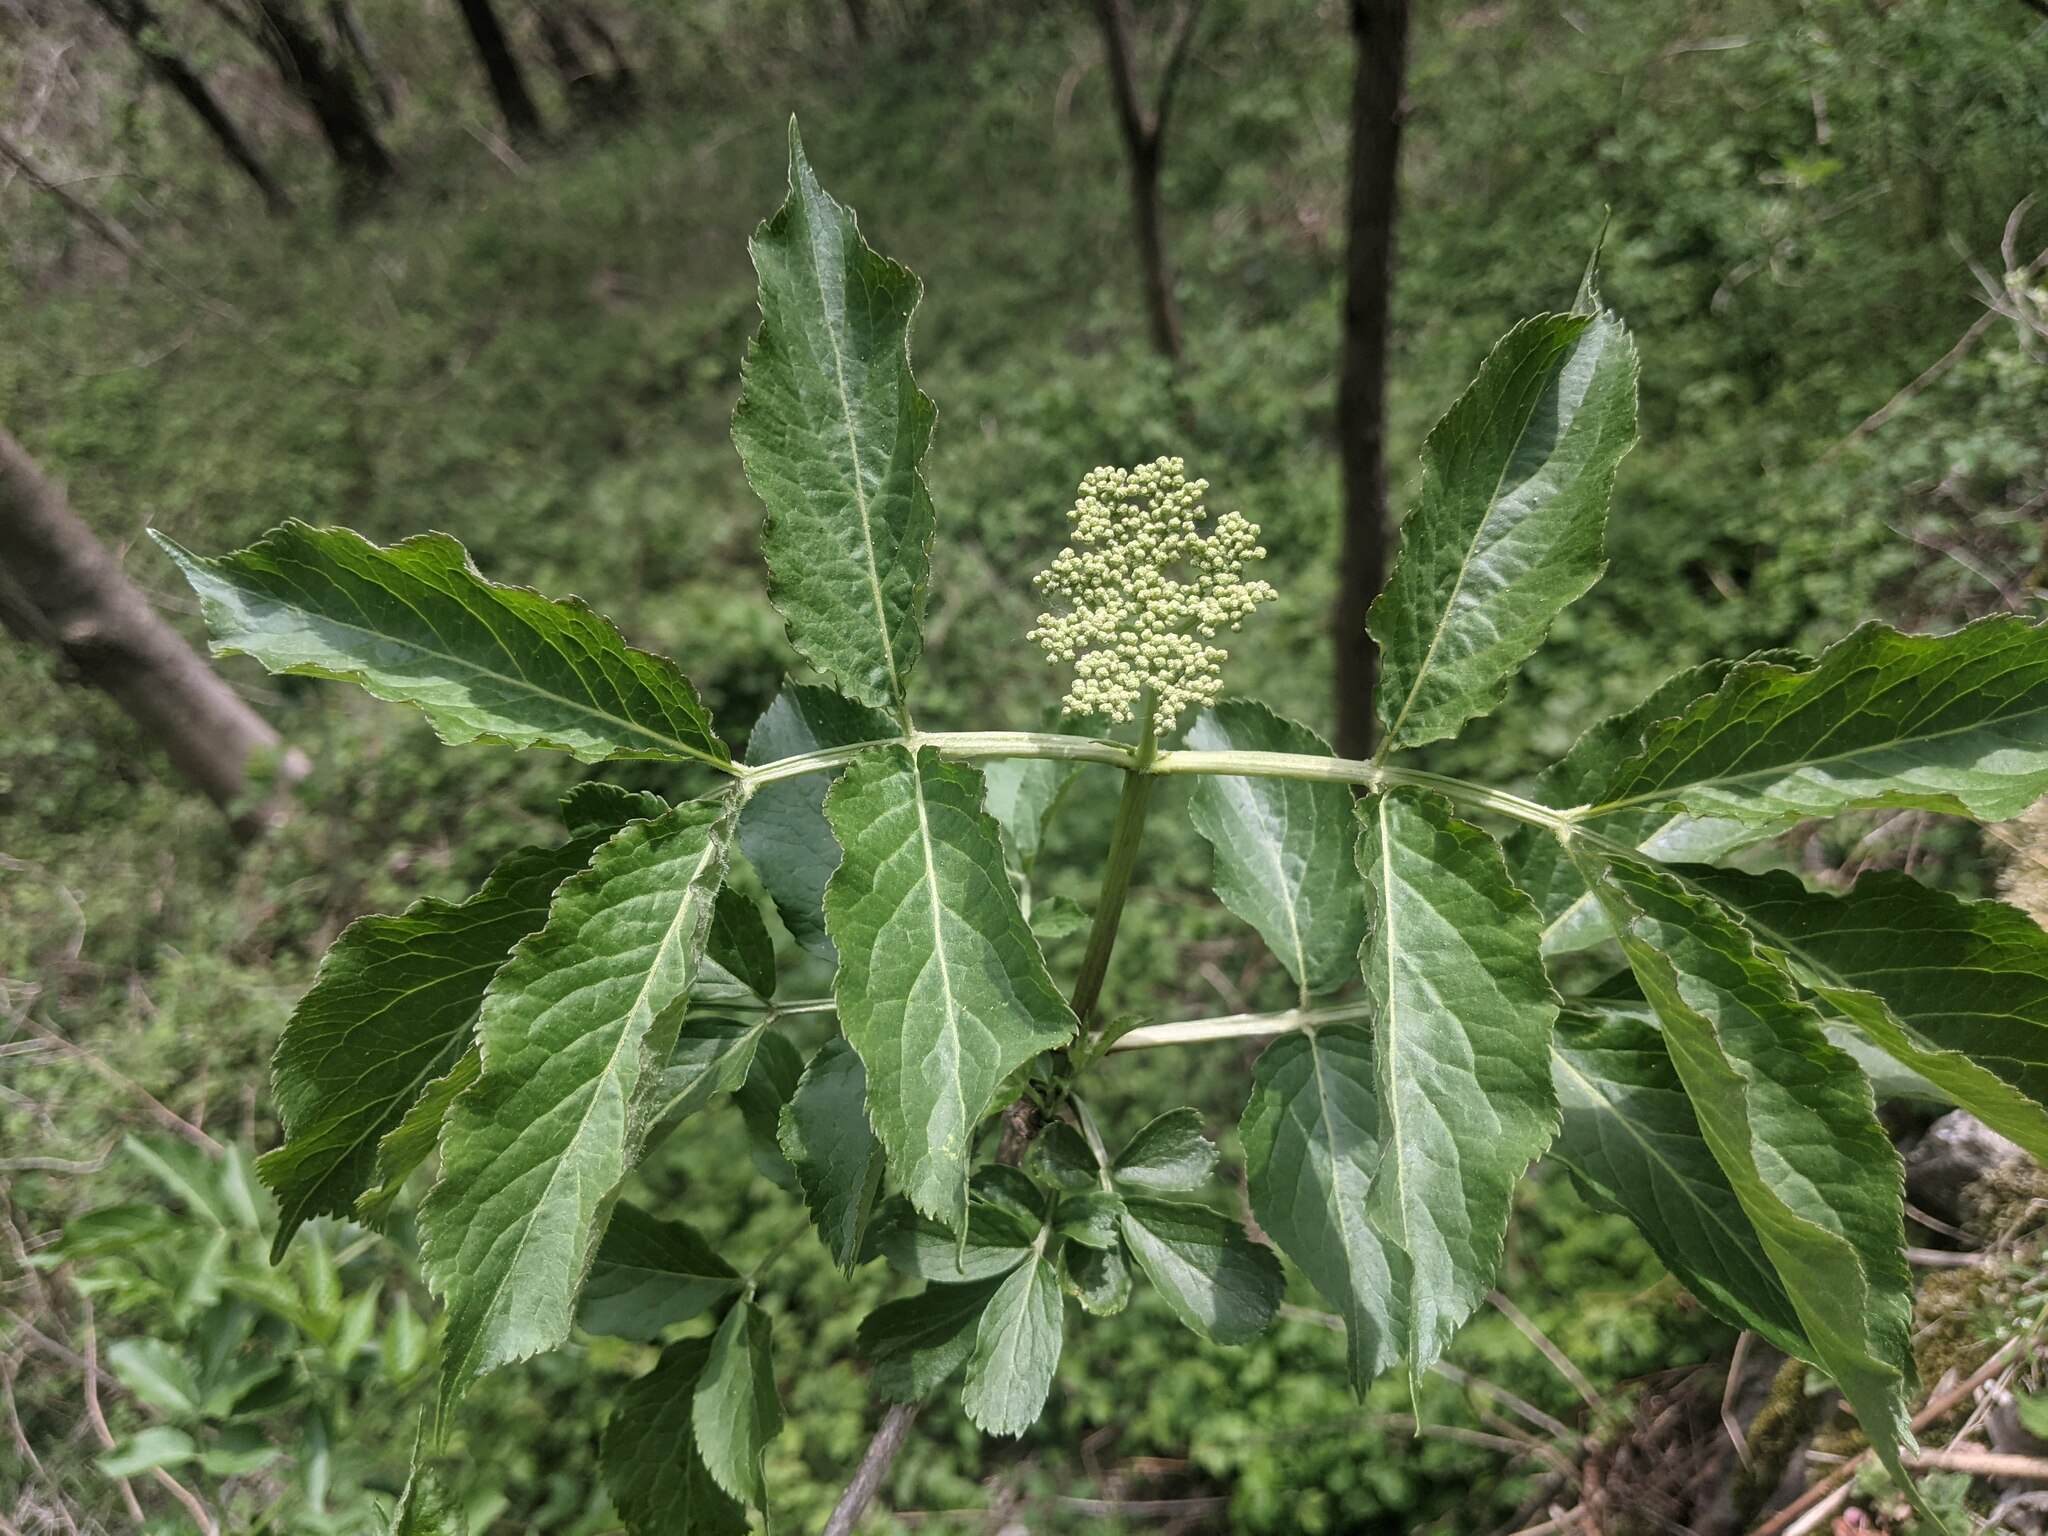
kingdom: Plantae
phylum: Tracheophyta
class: Magnoliopsida
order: Dipsacales
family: Viburnaceae
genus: Sambucus
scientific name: Sambucus nigra
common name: Elder
